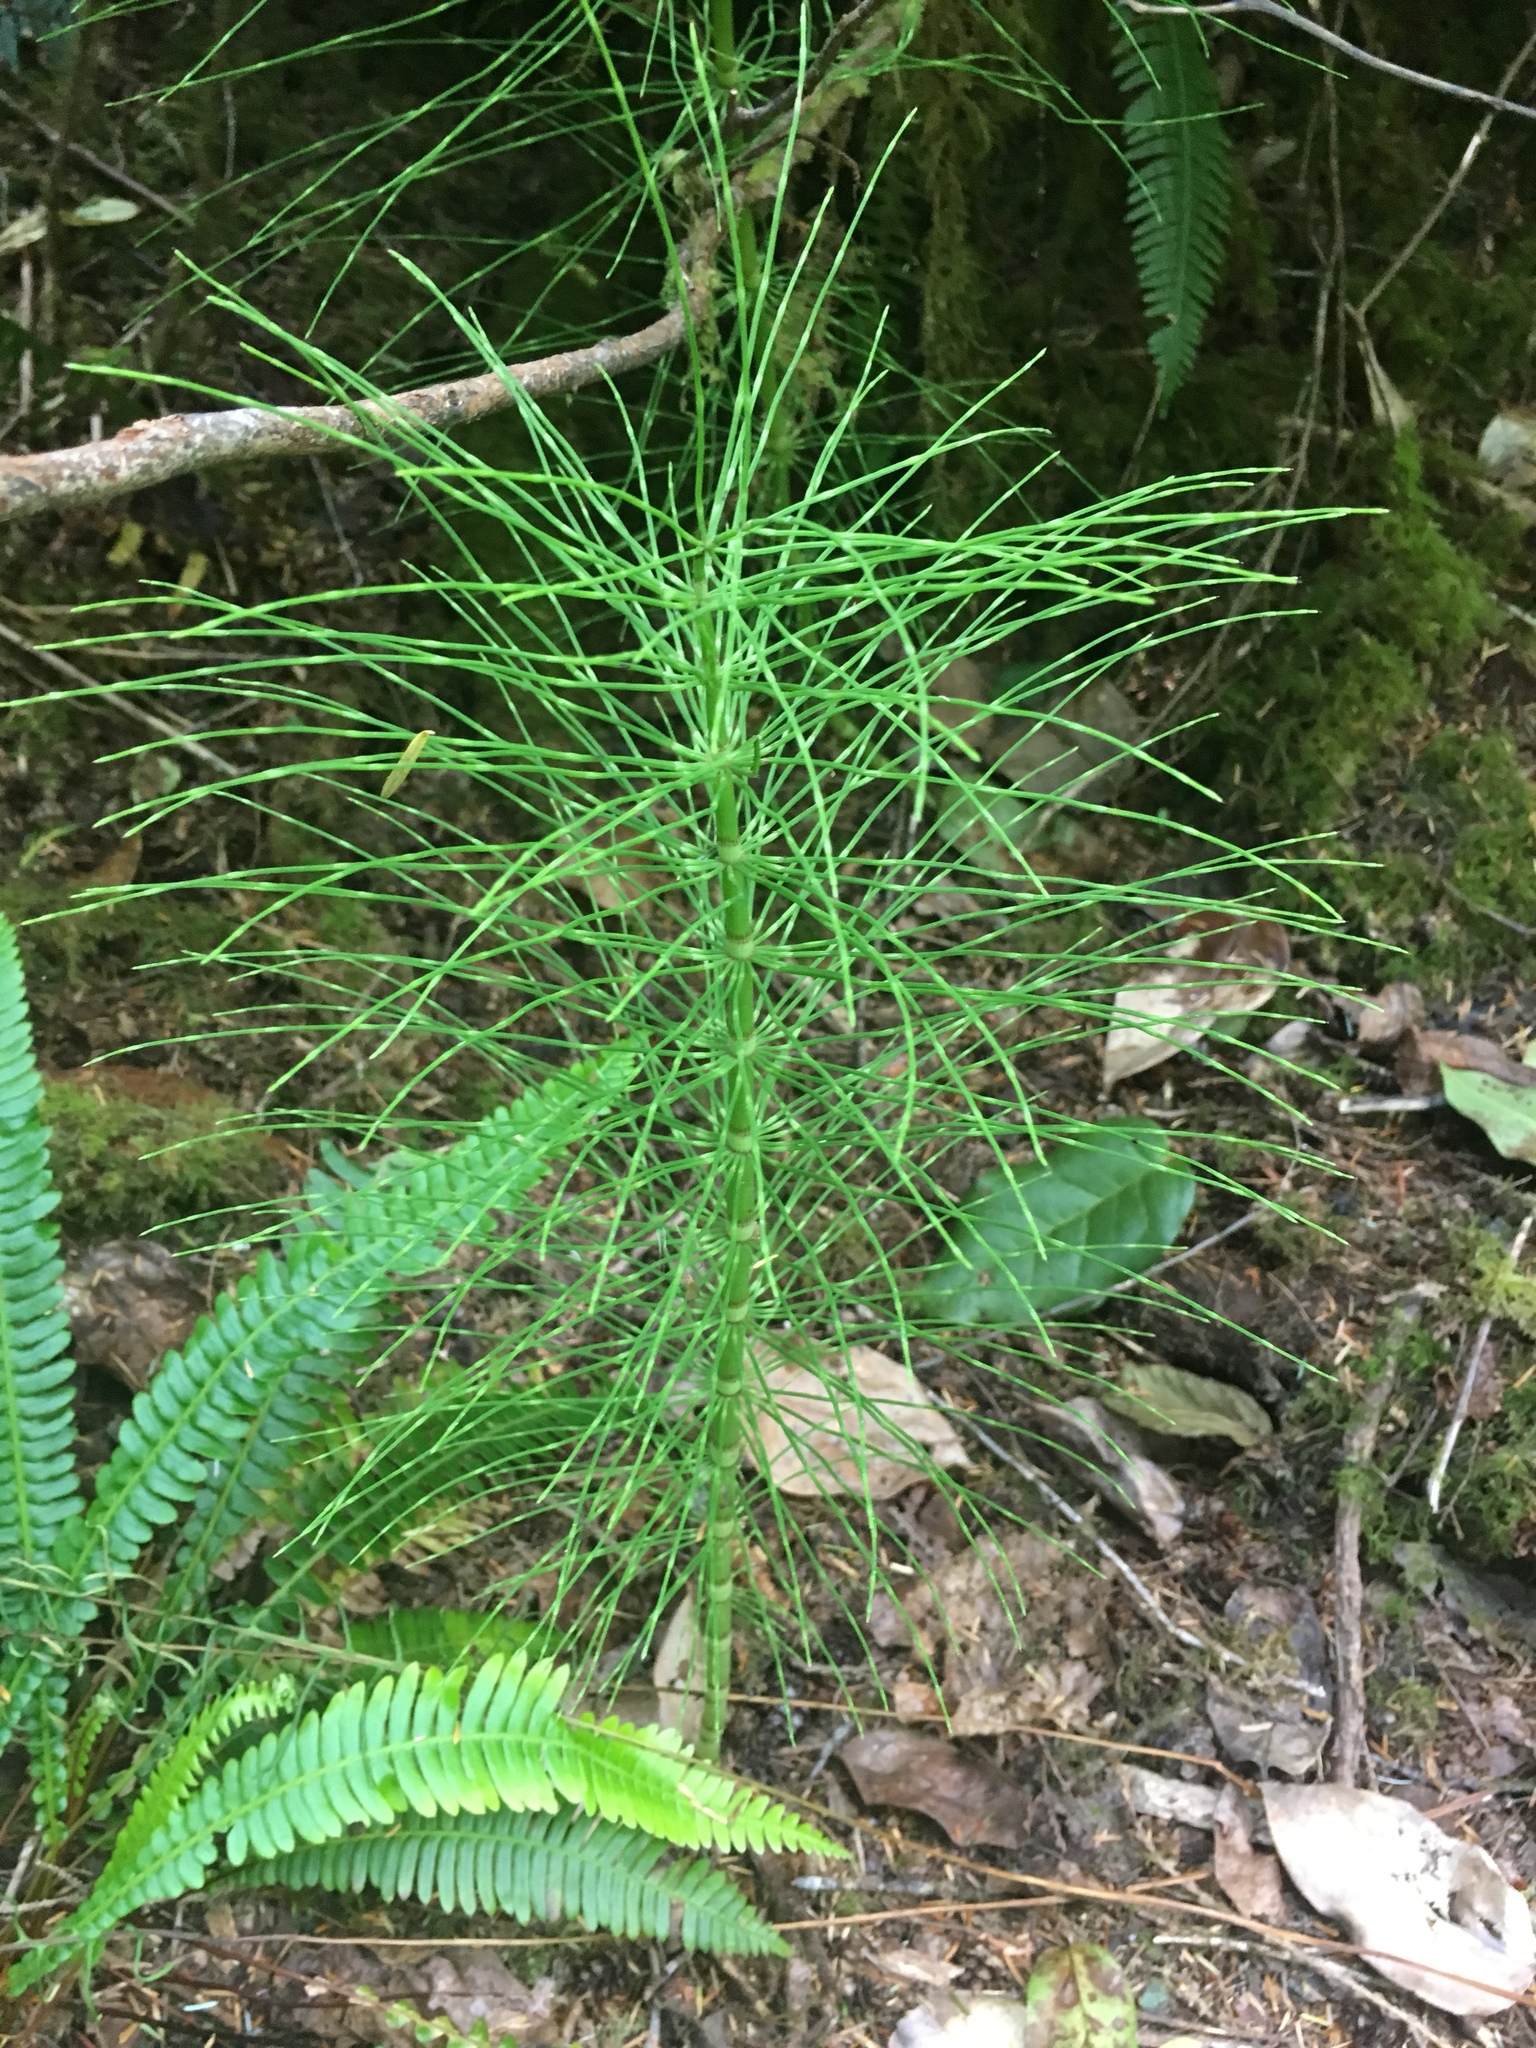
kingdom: Plantae
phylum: Tracheophyta
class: Polypodiopsida
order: Equisetales
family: Equisetaceae
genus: Equisetum
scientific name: Equisetum telmateia
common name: Great horsetail
